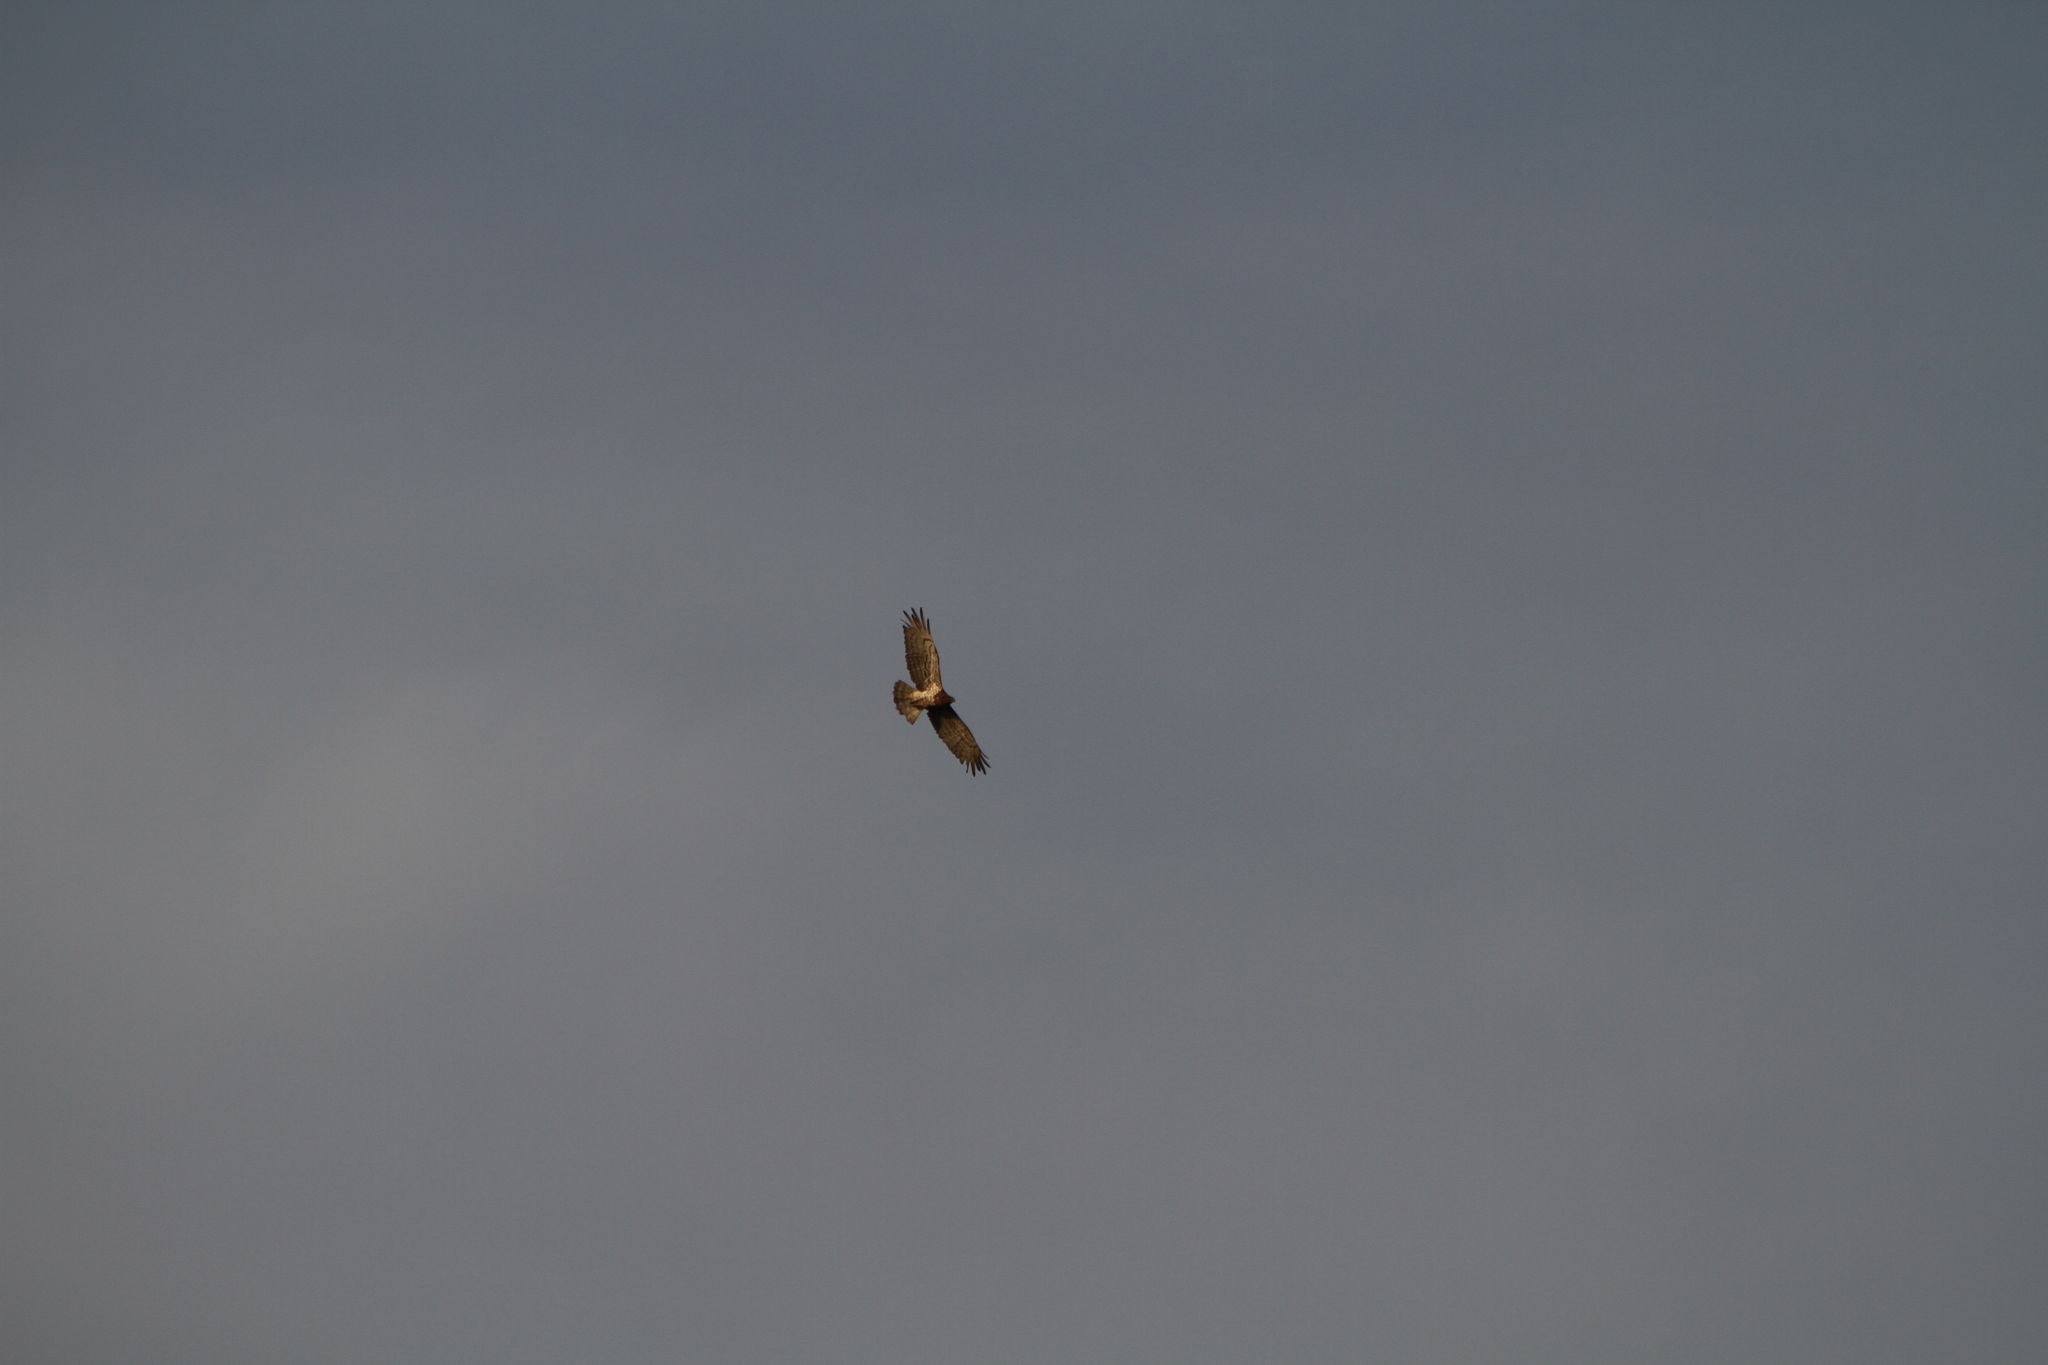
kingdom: Animalia
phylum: Chordata
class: Aves
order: Accipitriformes
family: Accipitridae
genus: Circaetus
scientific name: Circaetus gallicus
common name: Short-toed snake eagle
